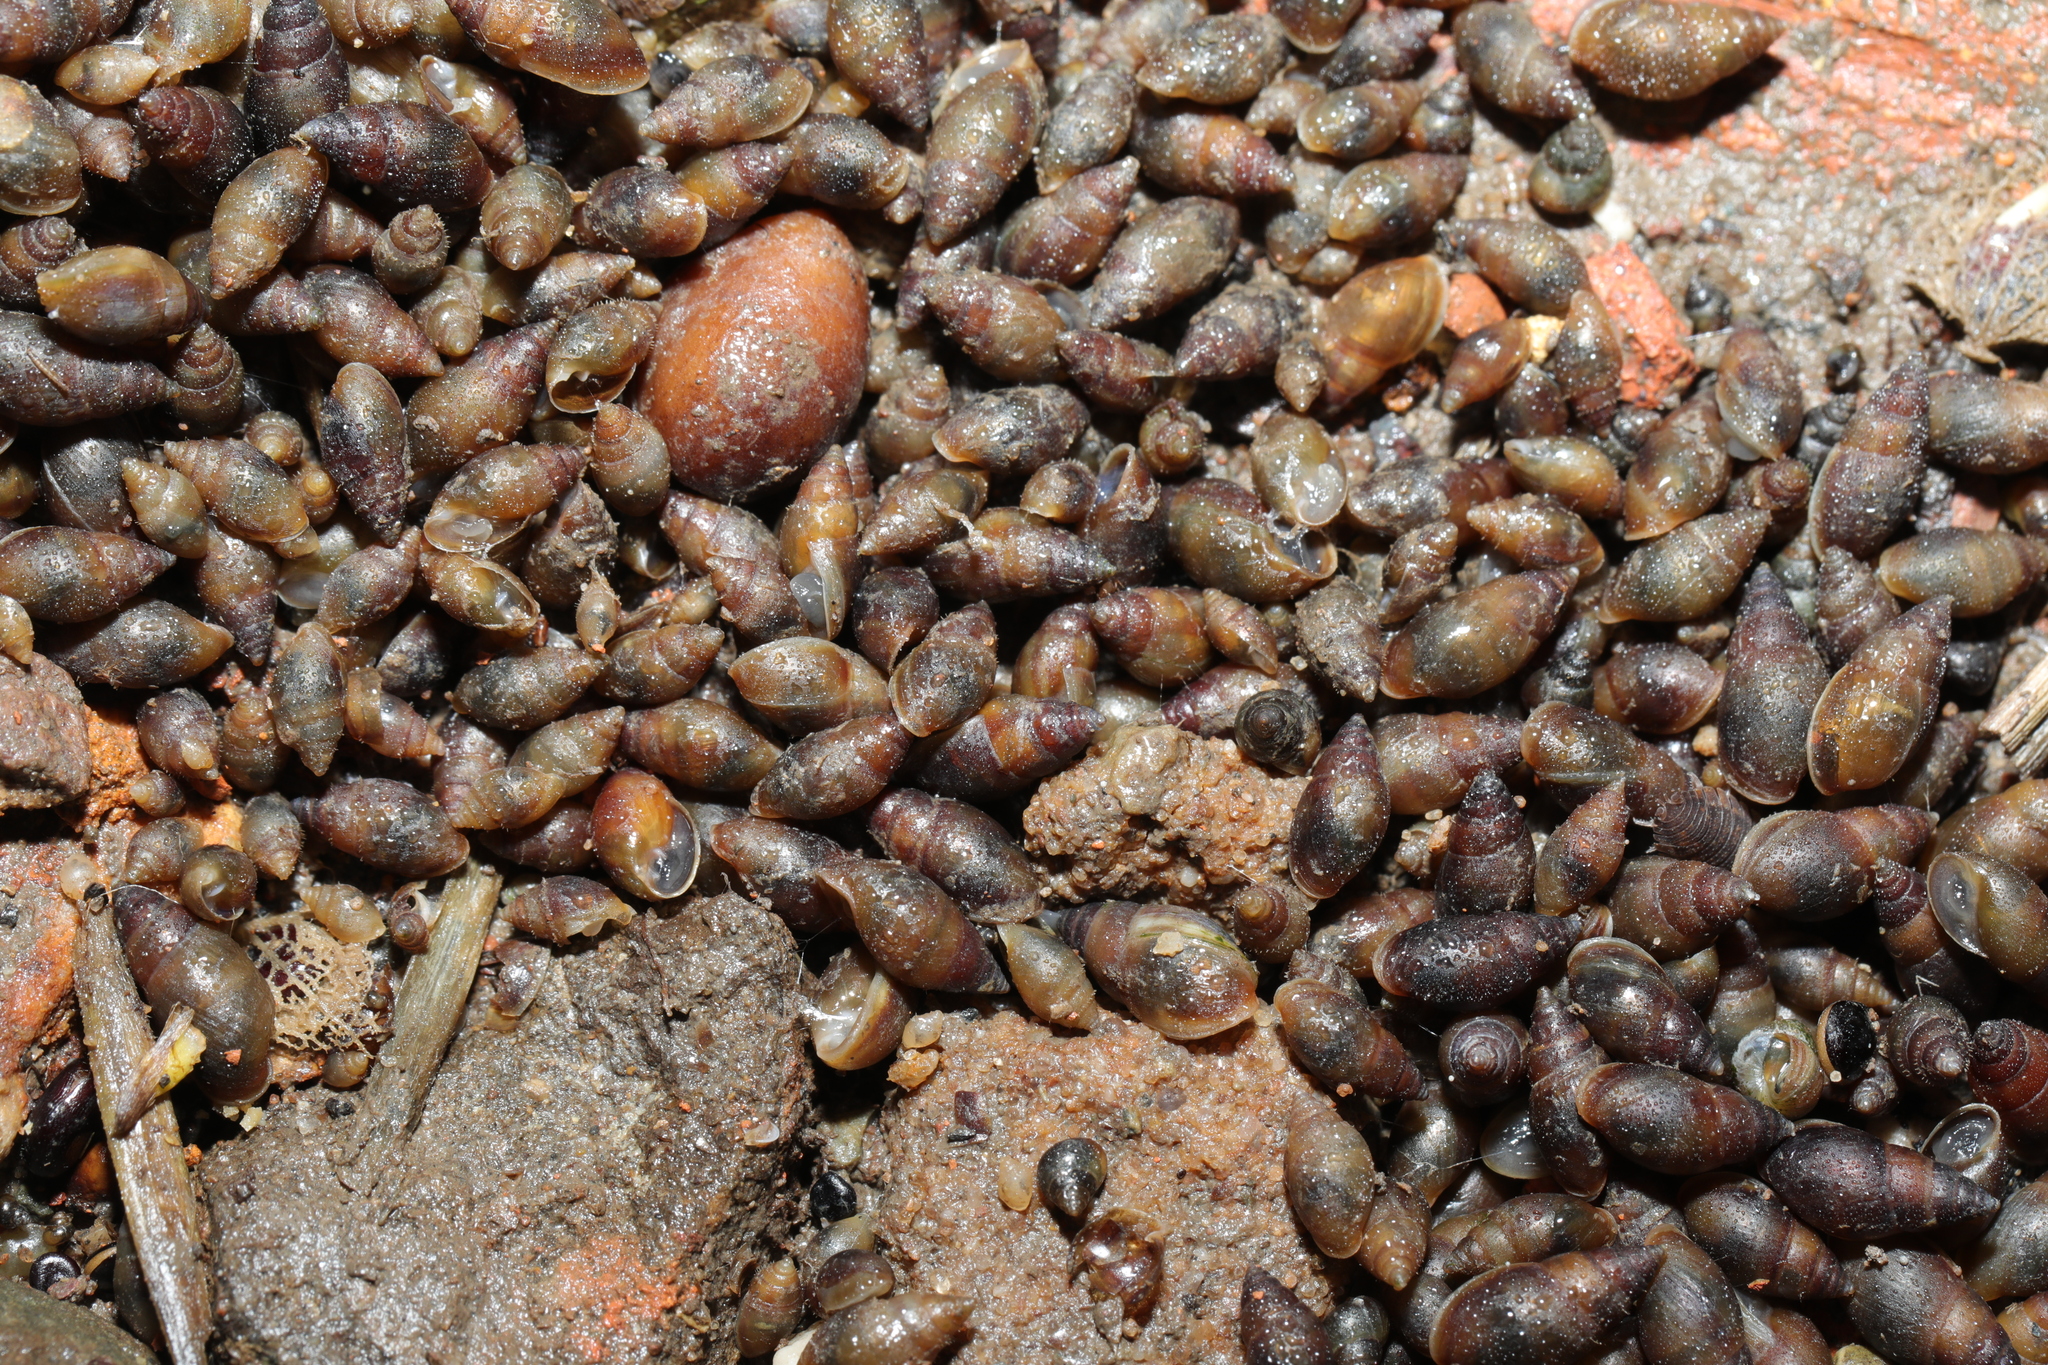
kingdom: Animalia
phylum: Mollusca
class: Gastropoda
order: Ellobiida
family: Ellobiidae
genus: Myosotella
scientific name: Myosotella myosotis
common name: Mouse-eared snail
